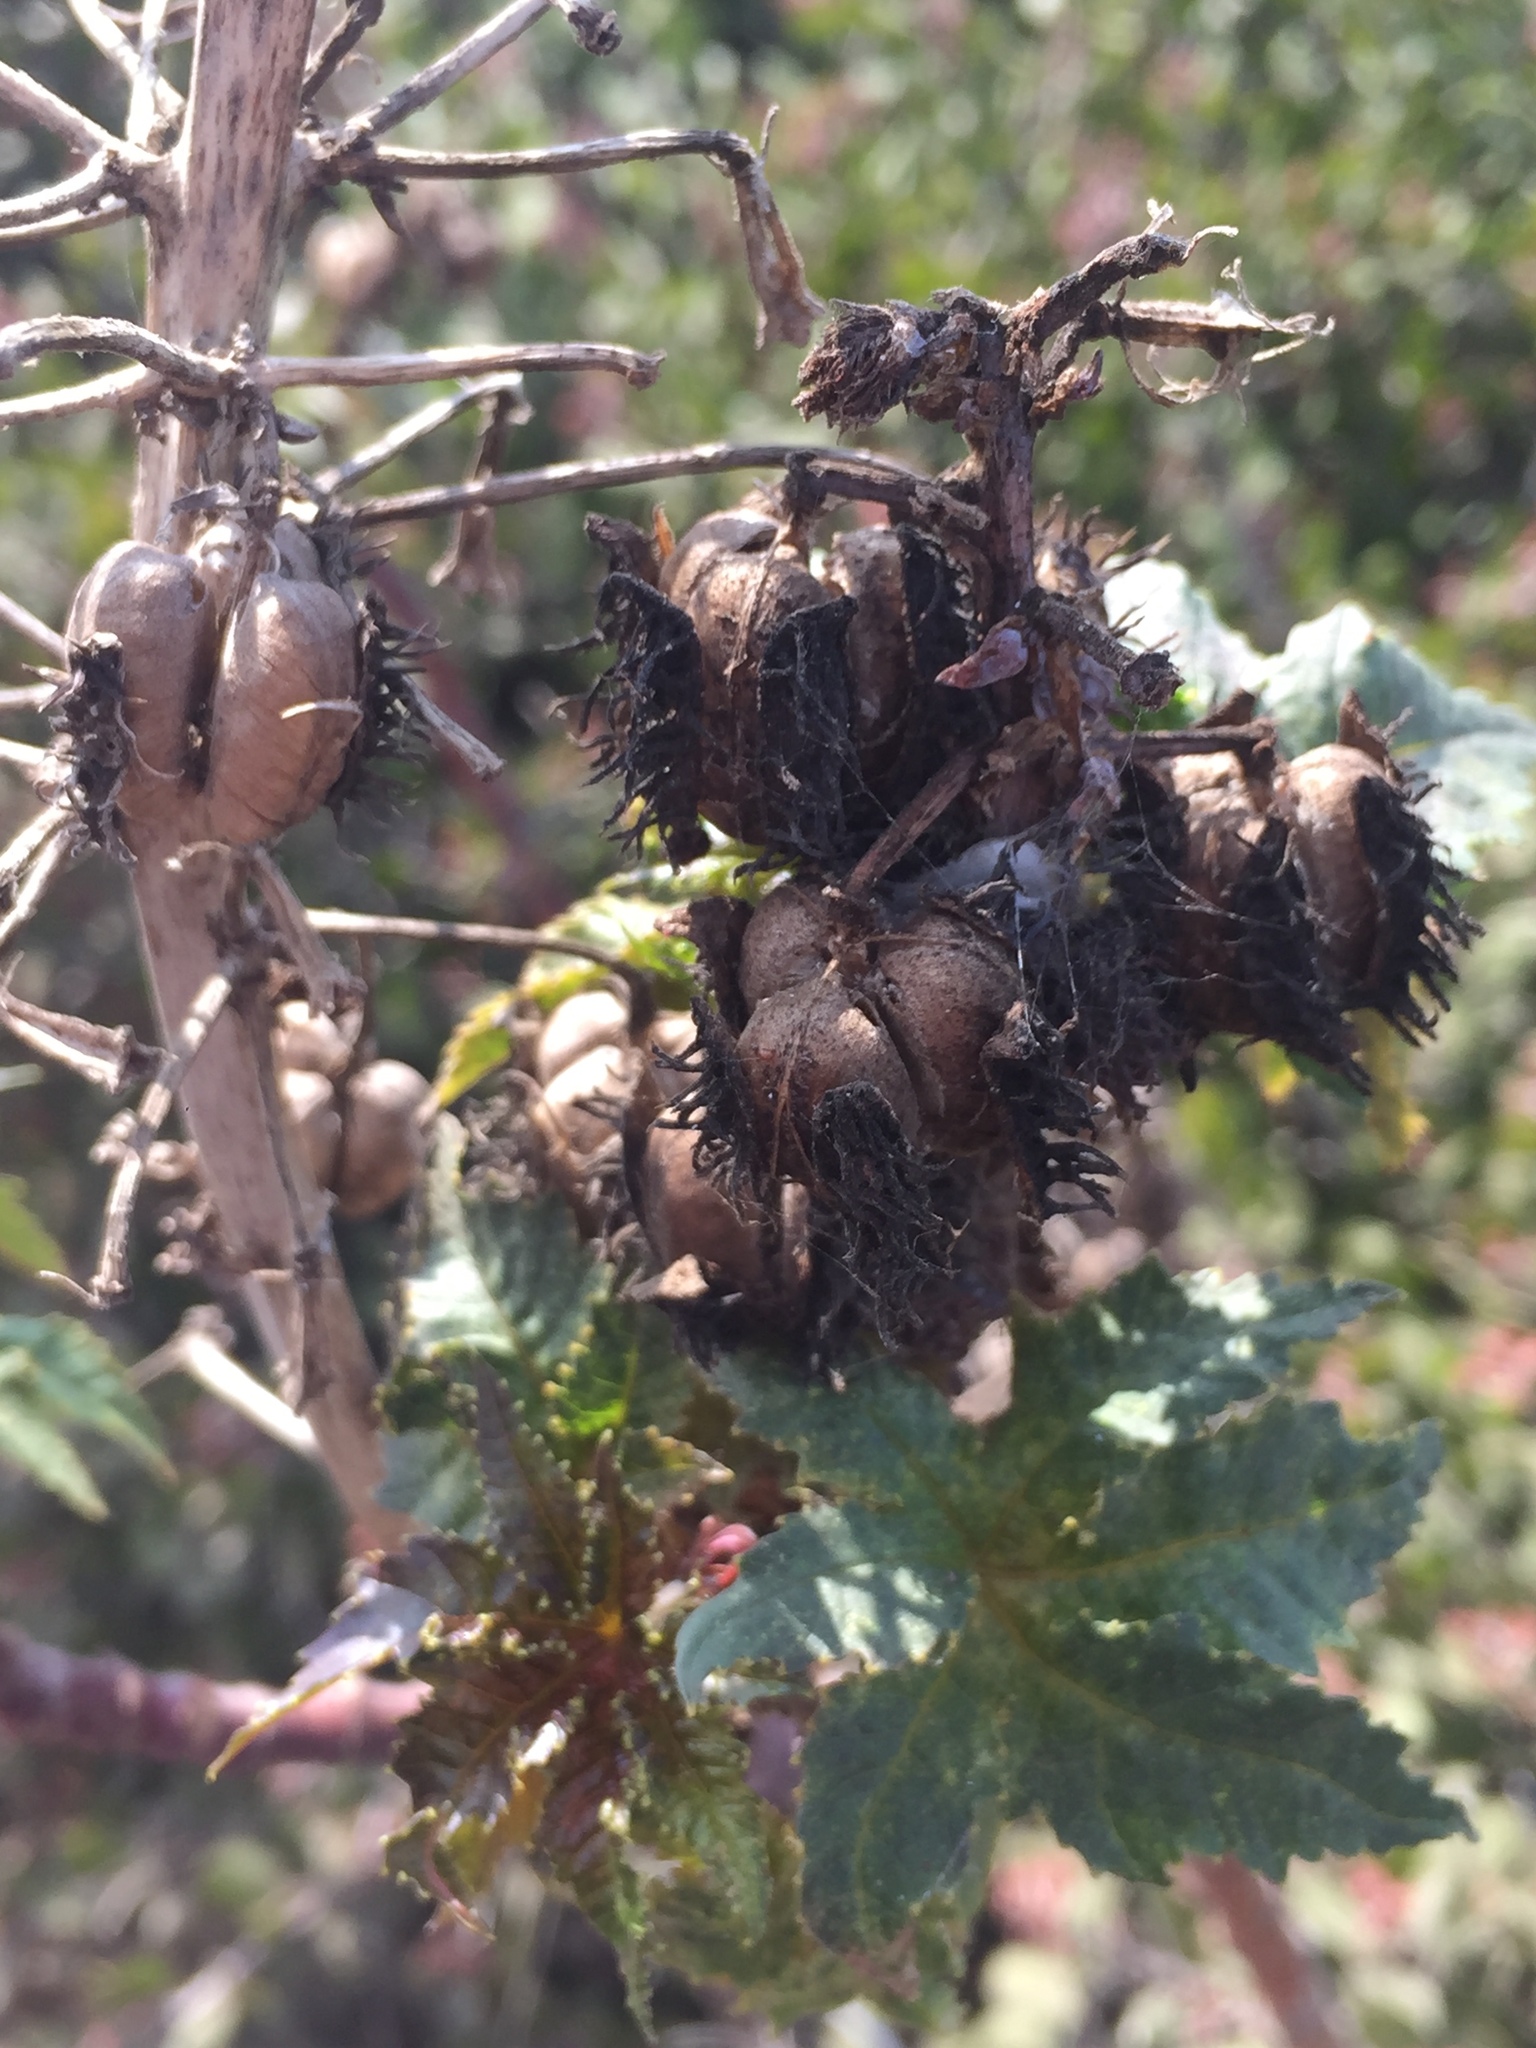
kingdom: Plantae
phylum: Tracheophyta
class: Magnoliopsida
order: Malpighiales
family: Euphorbiaceae
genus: Ricinus
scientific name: Ricinus communis
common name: Castor-oil-plant
